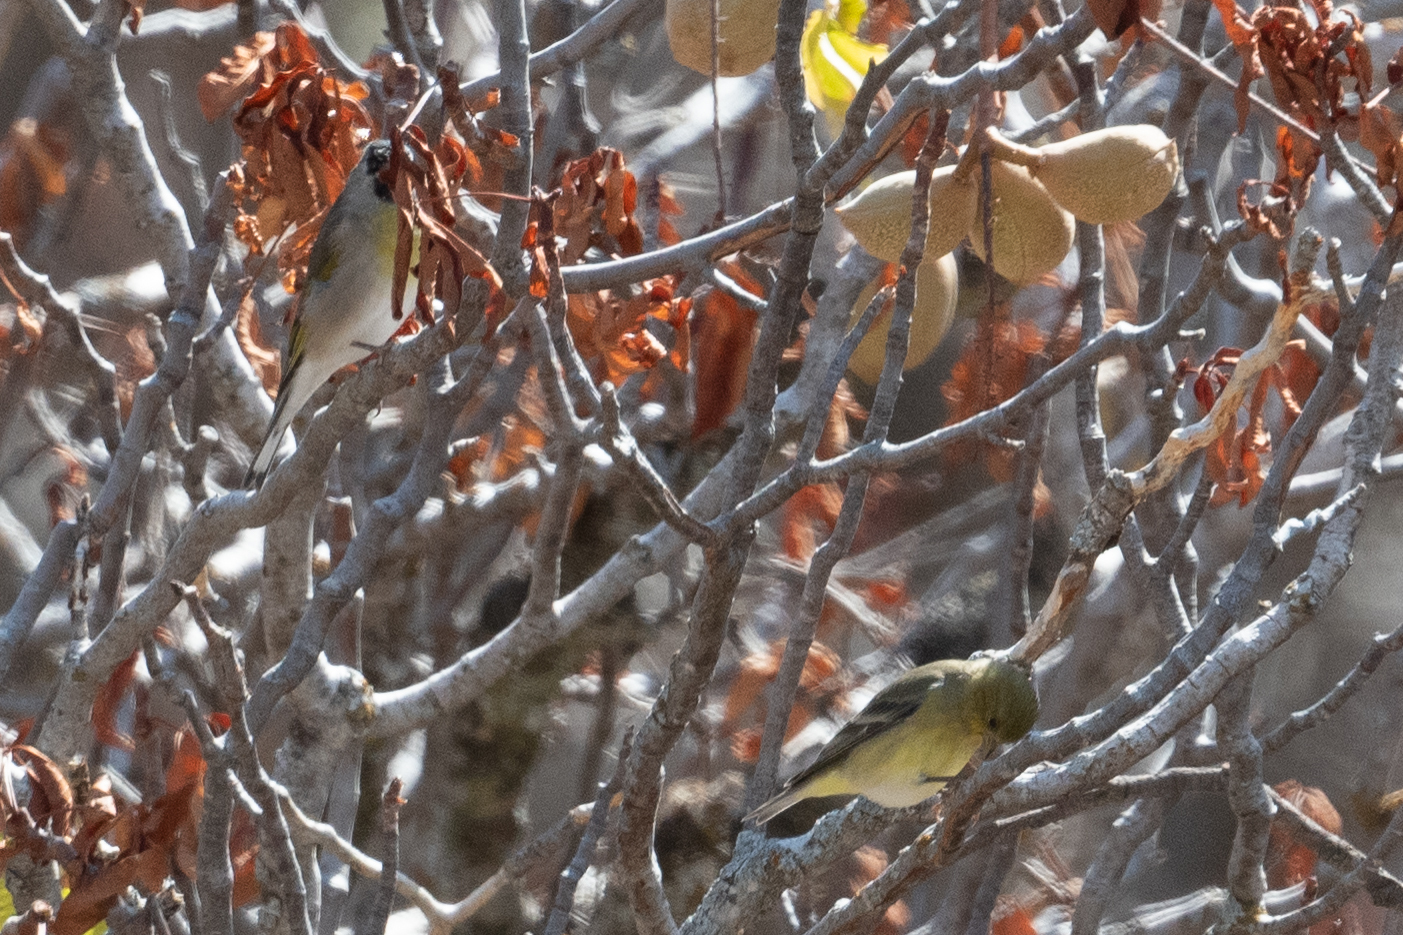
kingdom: Animalia
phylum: Chordata
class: Aves
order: Passeriformes
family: Fringillidae
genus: Spinus
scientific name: Spinus lawrencei
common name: Lawrence's goldfinch
